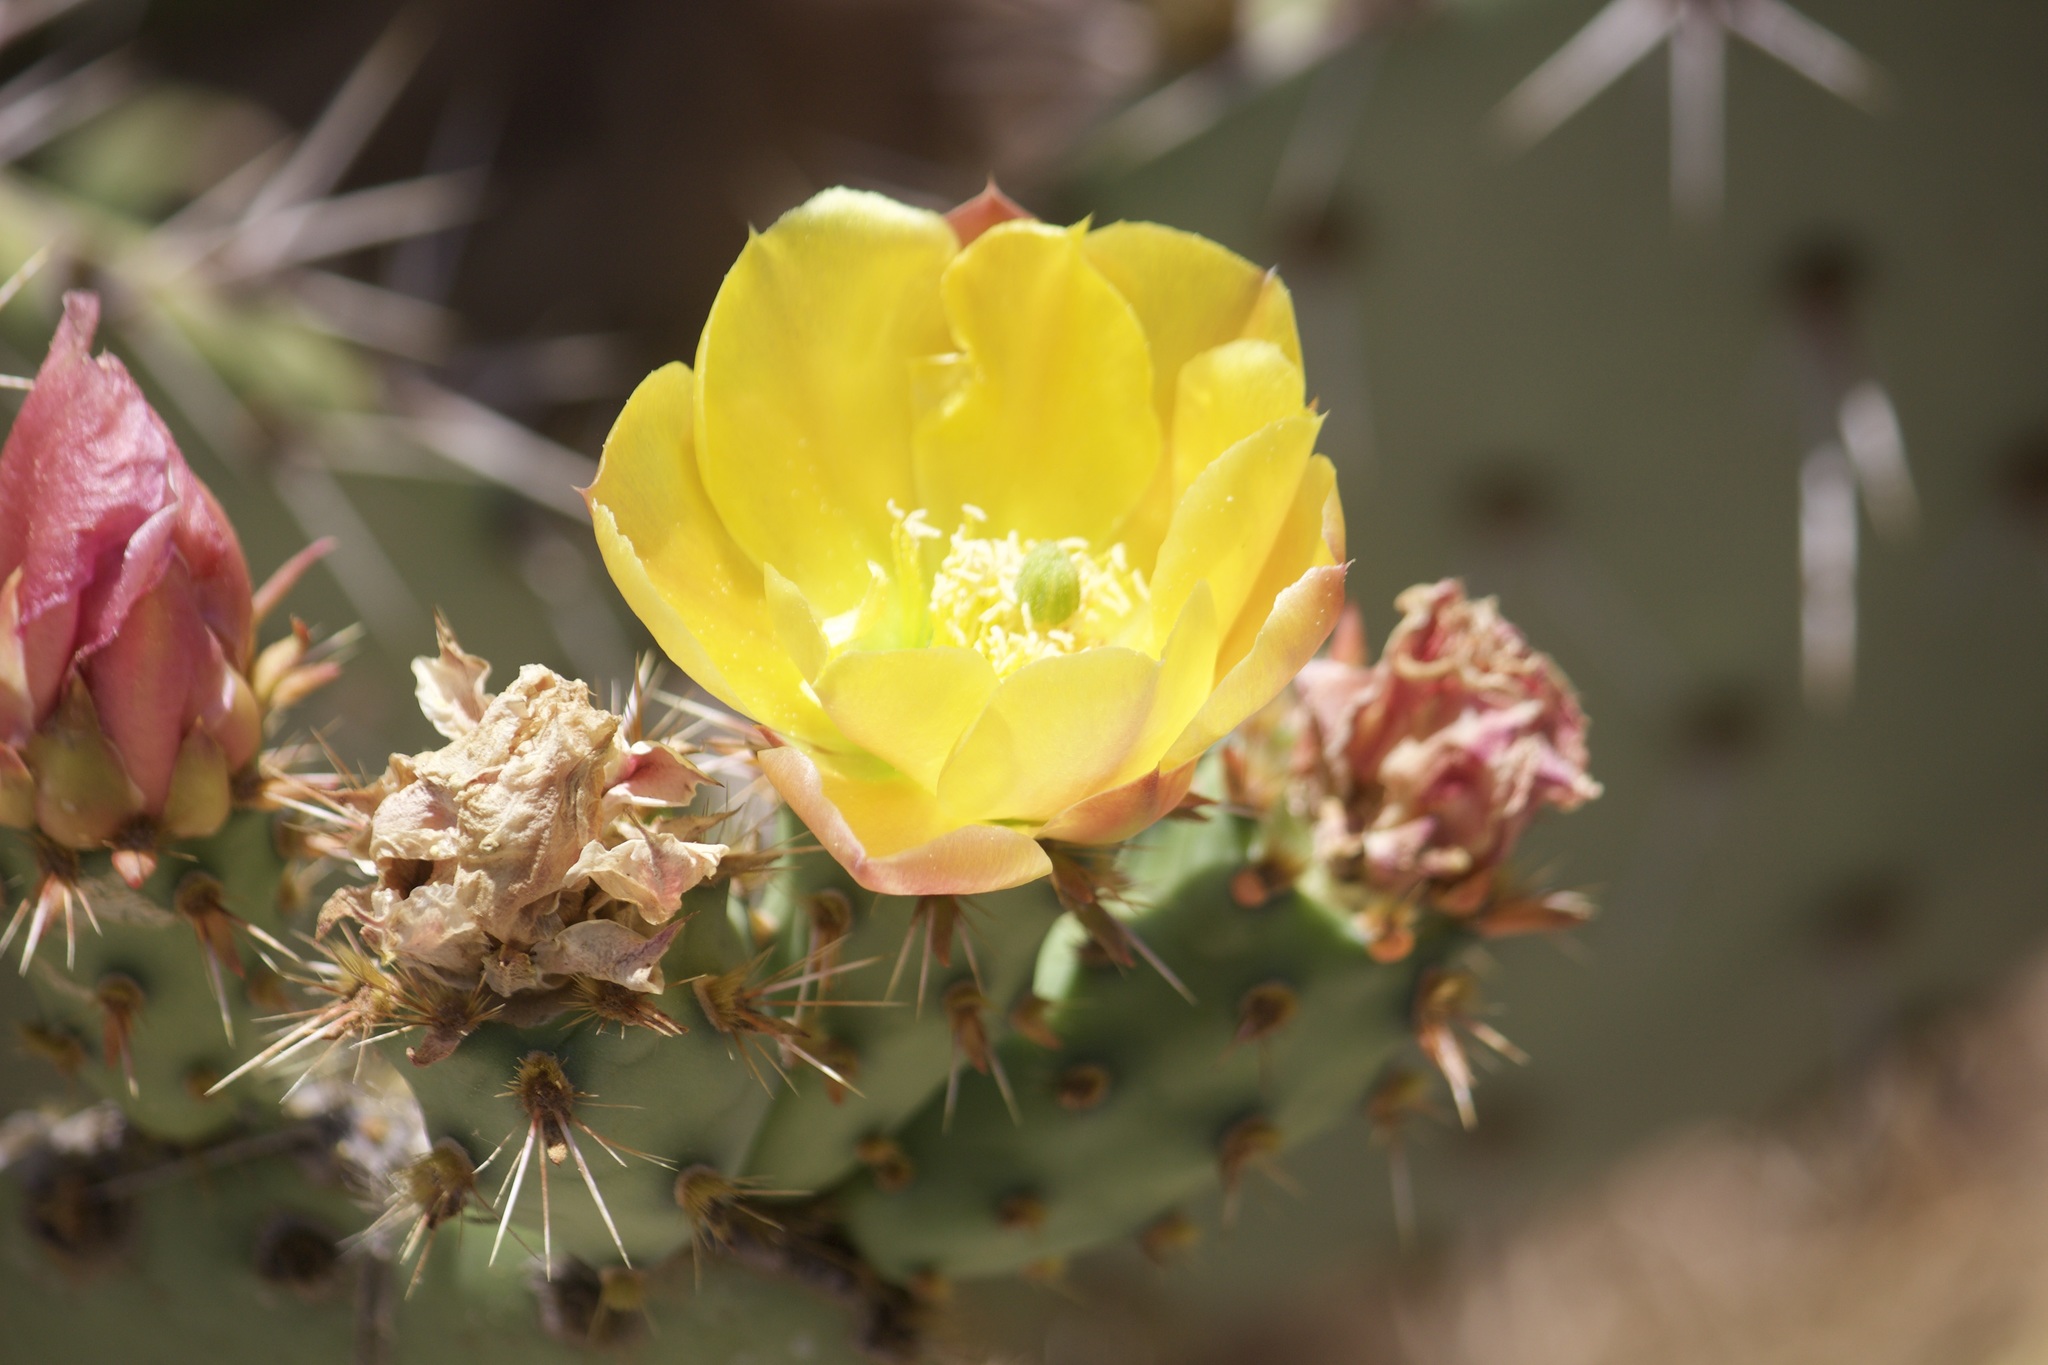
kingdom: Plantae
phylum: Tracheophyta
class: Magnoliopsida
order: Caryophyllales
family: Cactaceae
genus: Opuntia
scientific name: Opuntia littoralis
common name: Coastal prickly-pear
